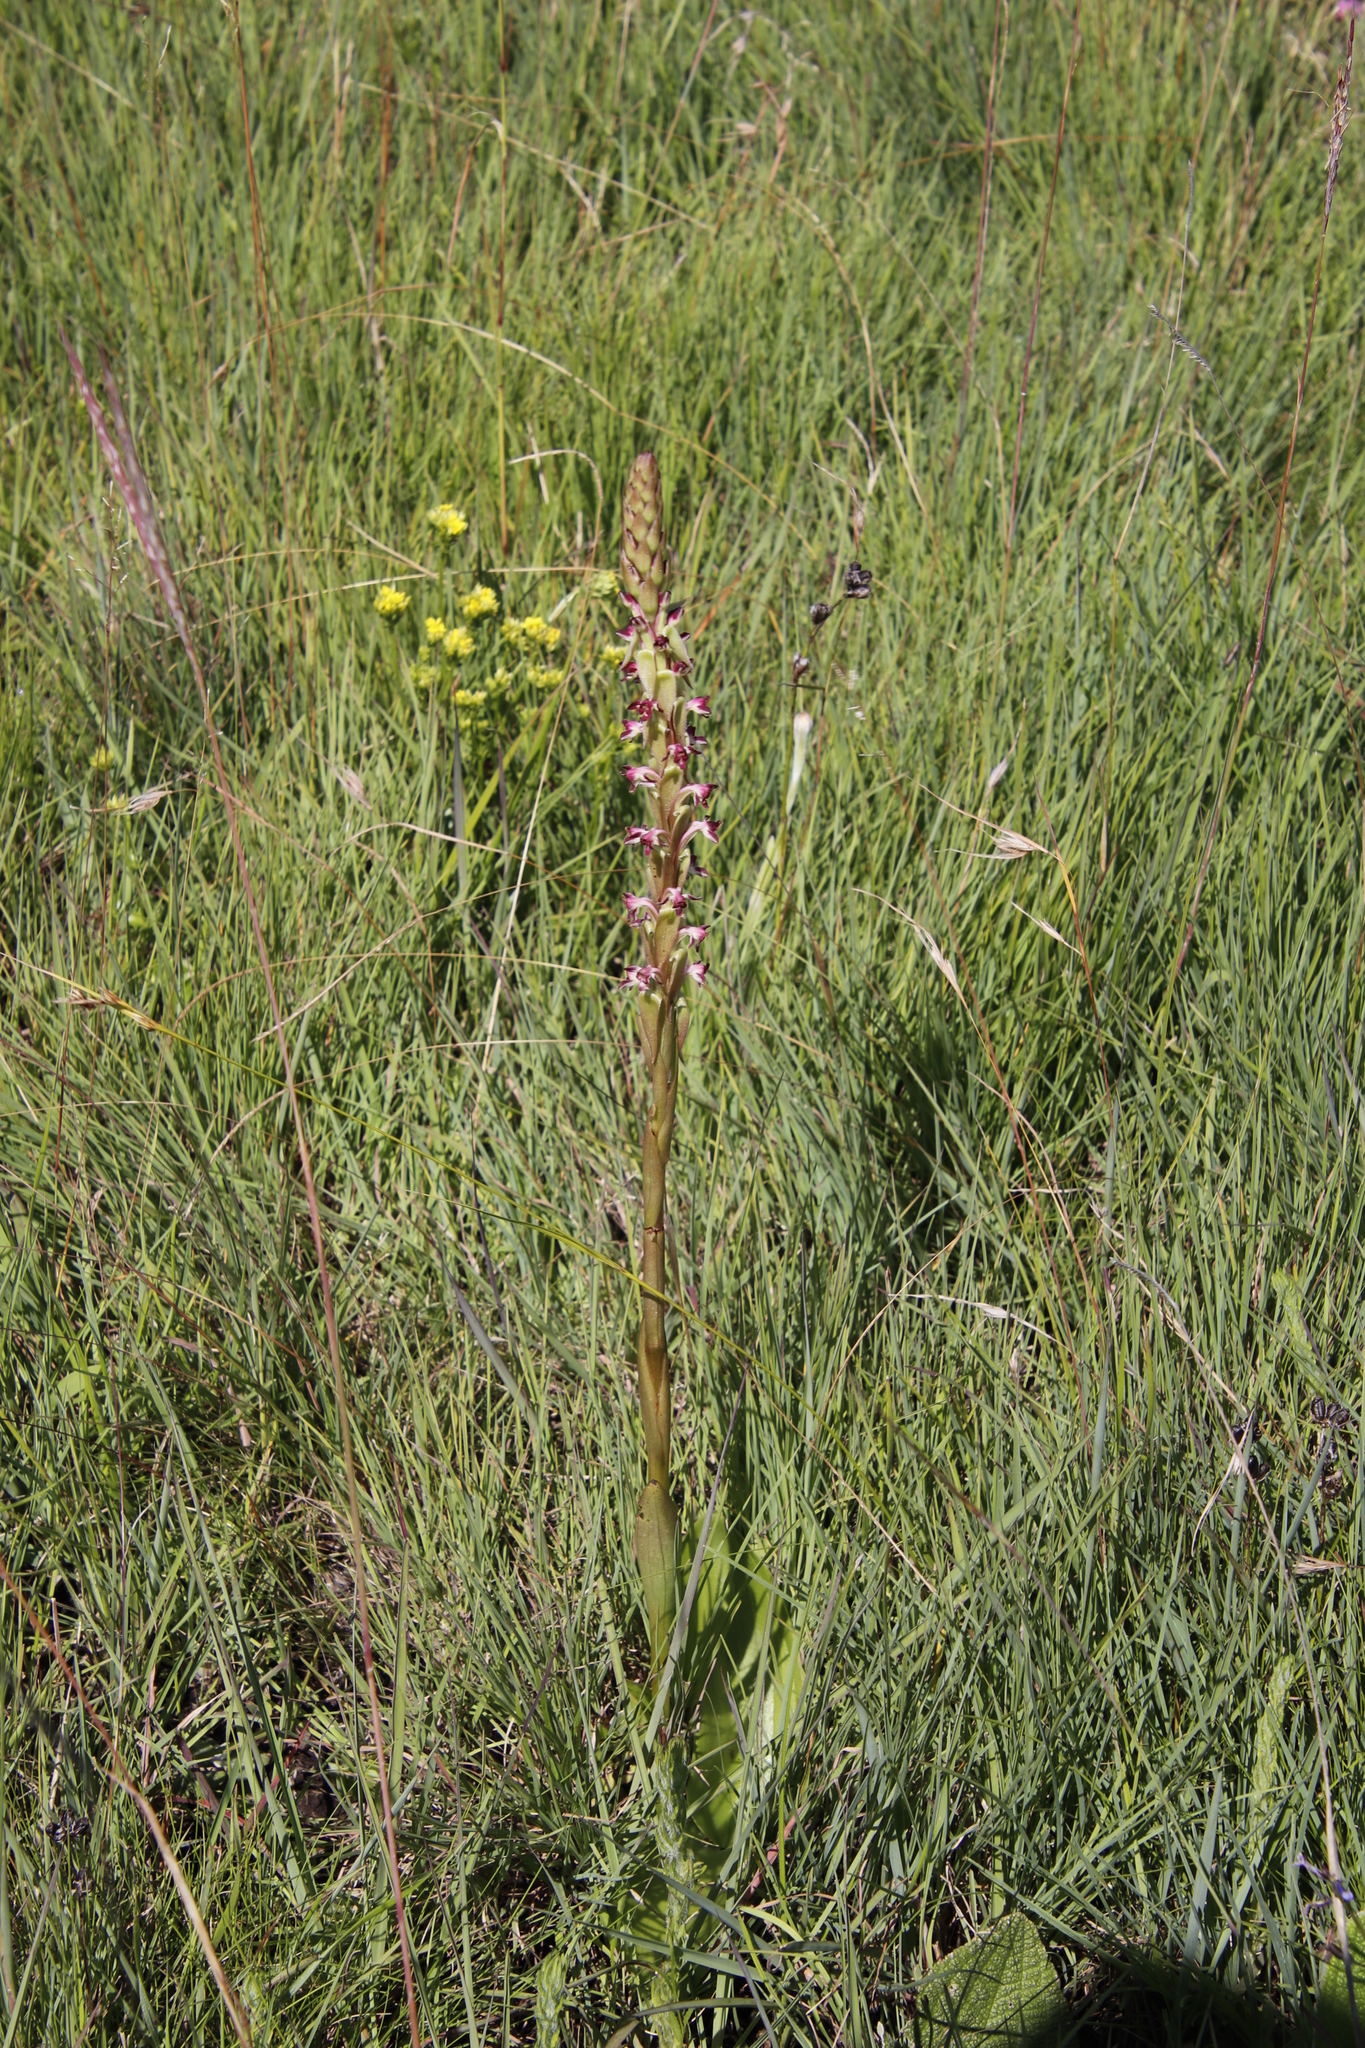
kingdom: Plantae
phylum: Tracheophyta
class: Liliopsida
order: Asparagales
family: Orchidaceae
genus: Satyrium
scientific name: Satyrium longicauda
